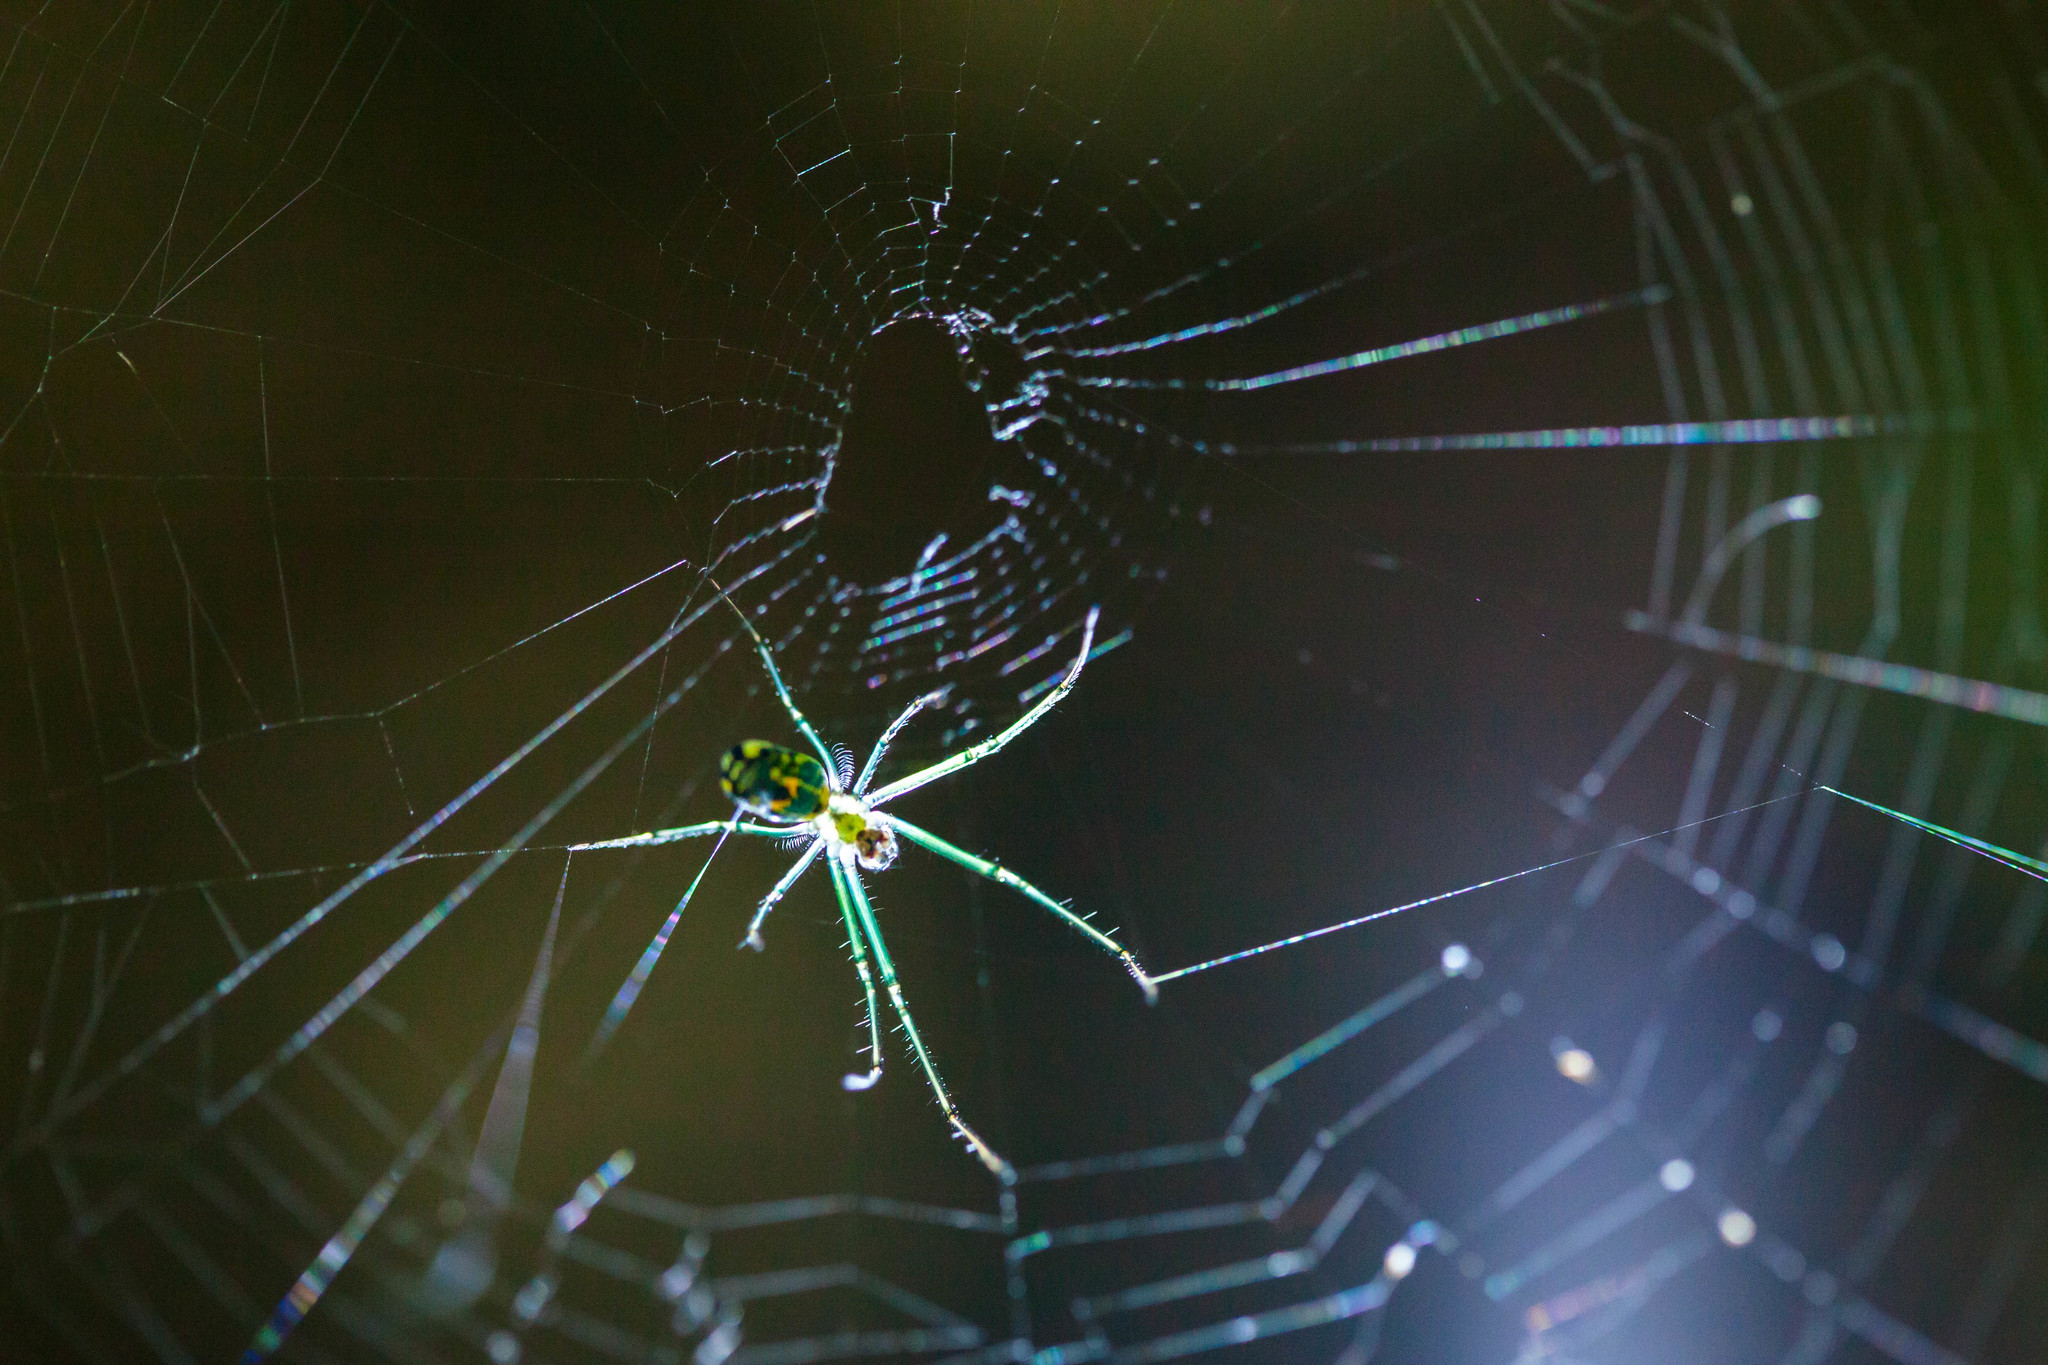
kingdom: Animalia
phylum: Arthropoda
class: Arachnida
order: Araneae
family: Tetragnathidae
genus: Leucauge
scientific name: Leucauge venusta
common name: Longjawed orb weavers
